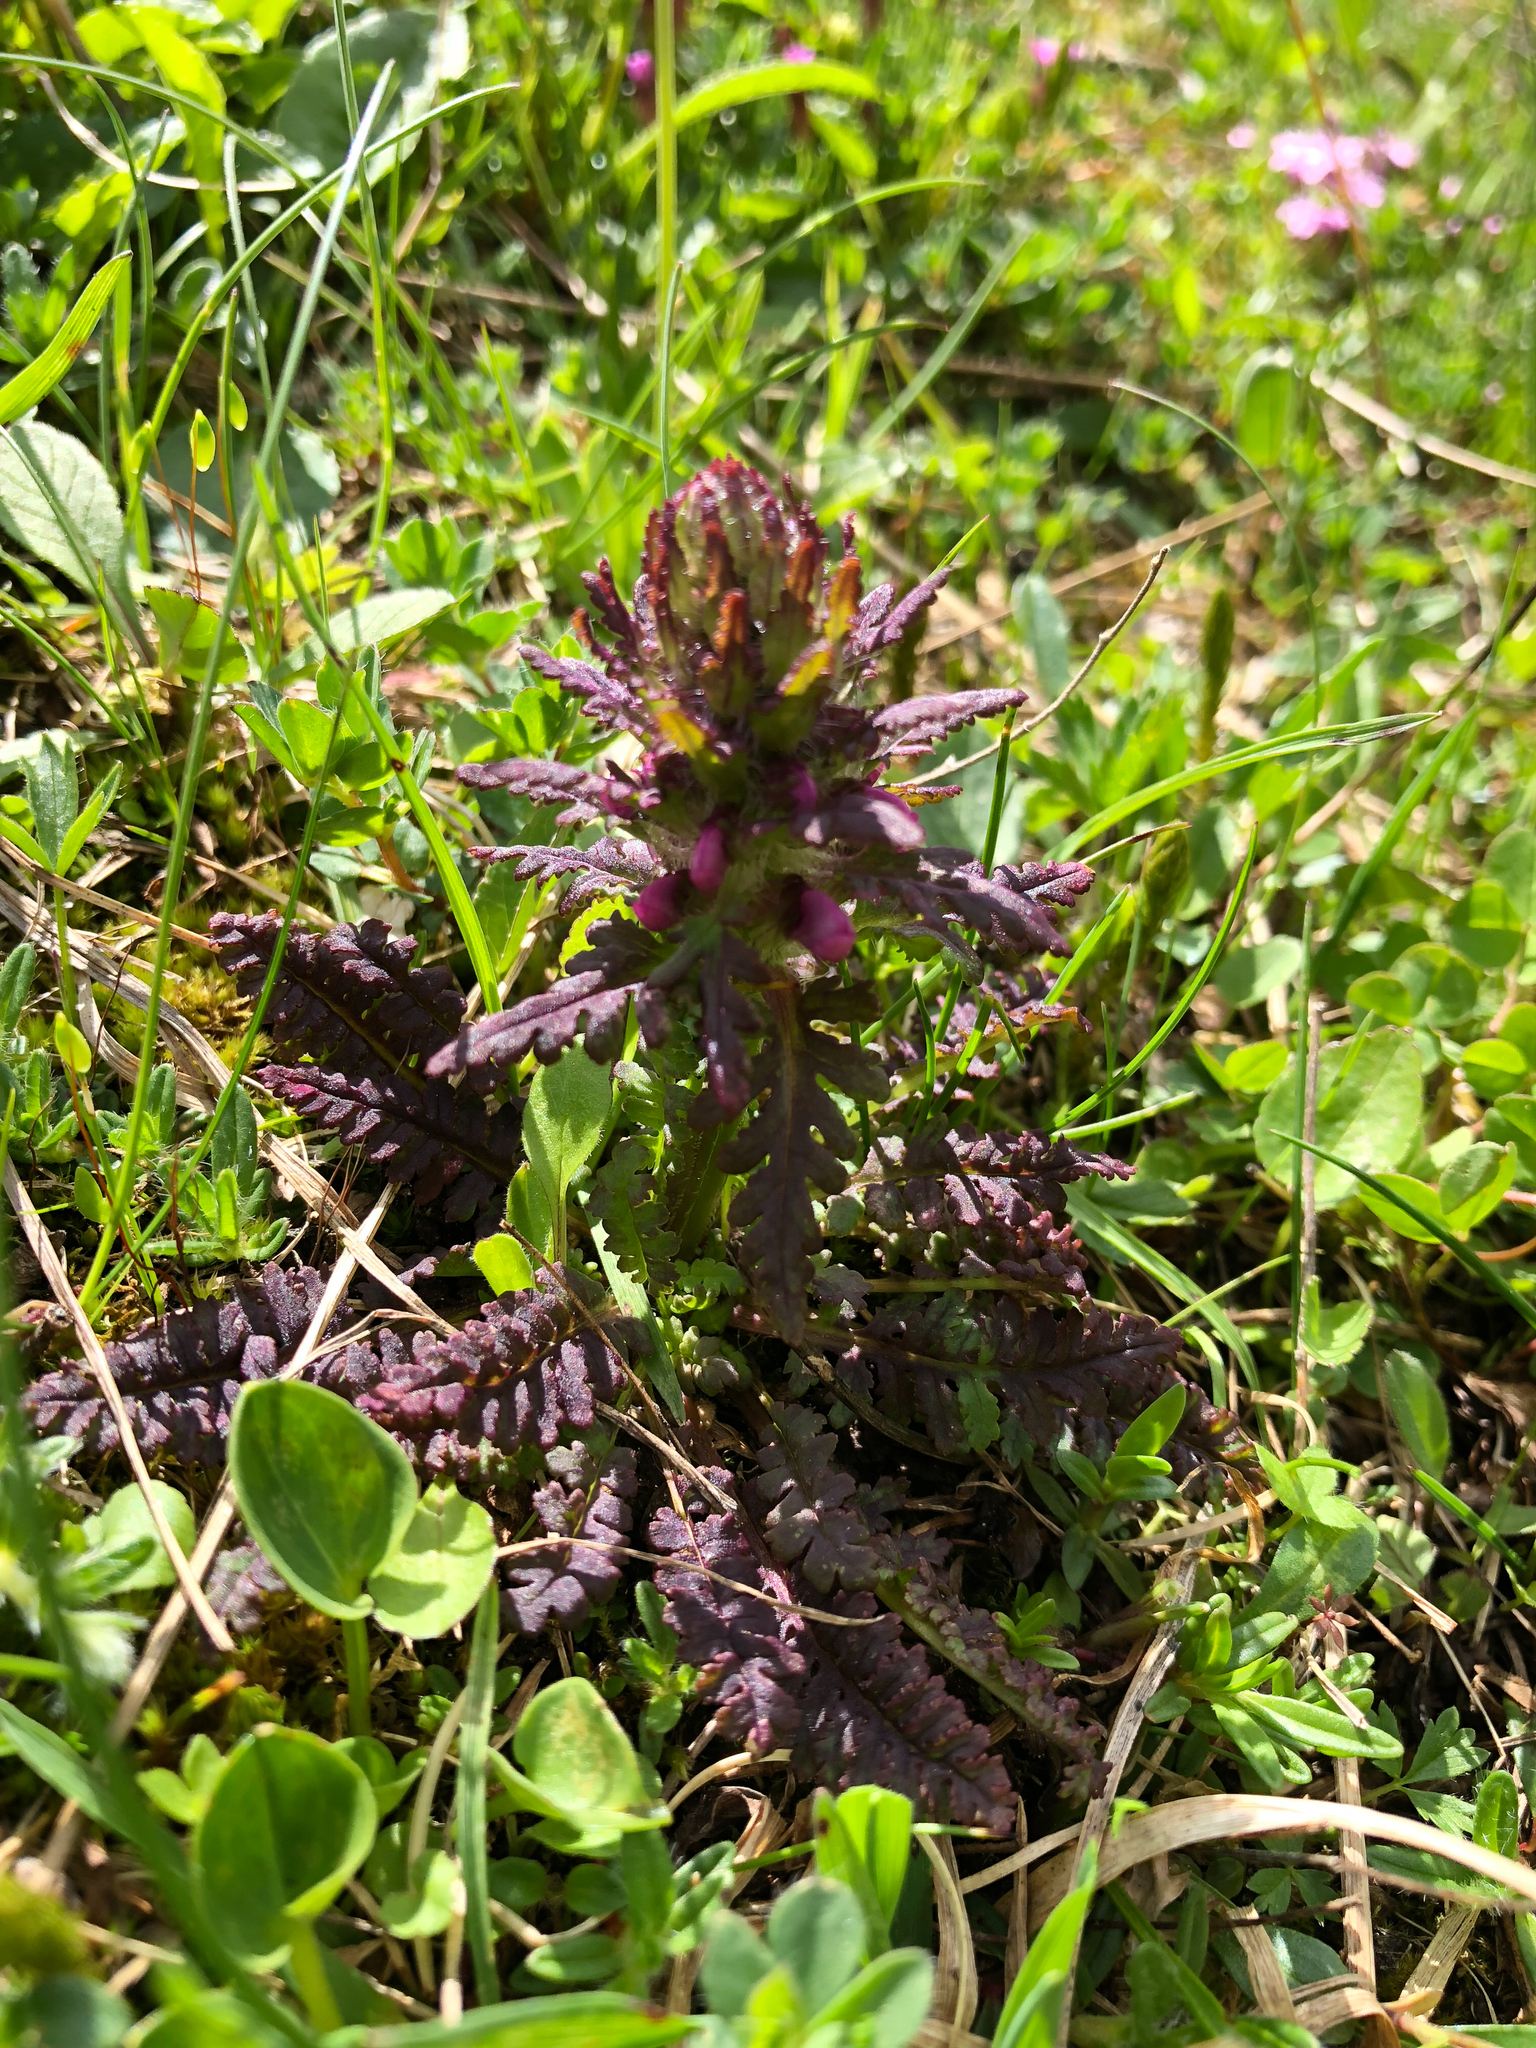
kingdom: Plantae
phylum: Tracheophyta
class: Magnoliopsida
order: Lamiales
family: Orobanchaceae
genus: Pedicularis
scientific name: Pedicularis verticillata
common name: Whorled lousewort
